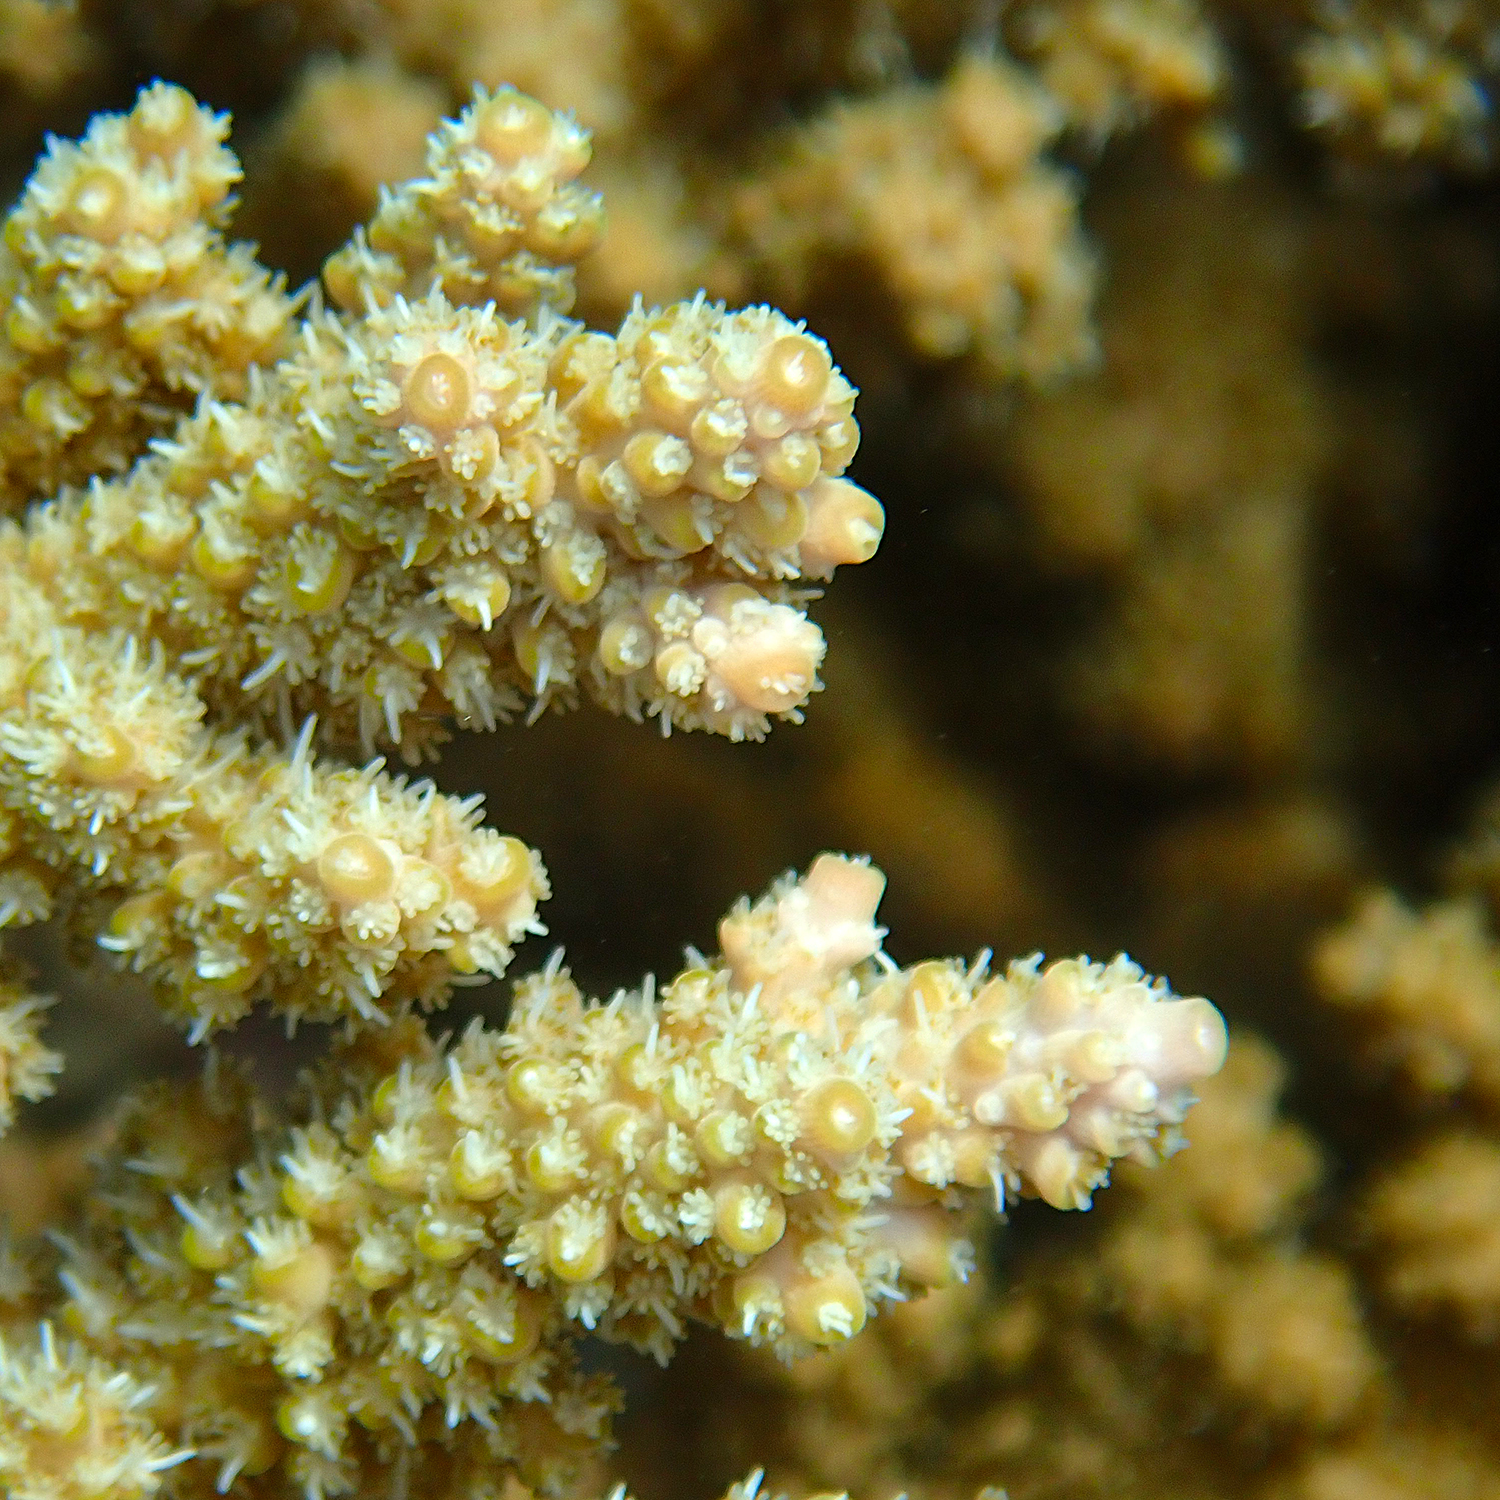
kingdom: Animalia
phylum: Cnidaria
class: Anthozoa
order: Scleractinia
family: Acroporidae
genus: Acropora
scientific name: Acropora solitaryensis
